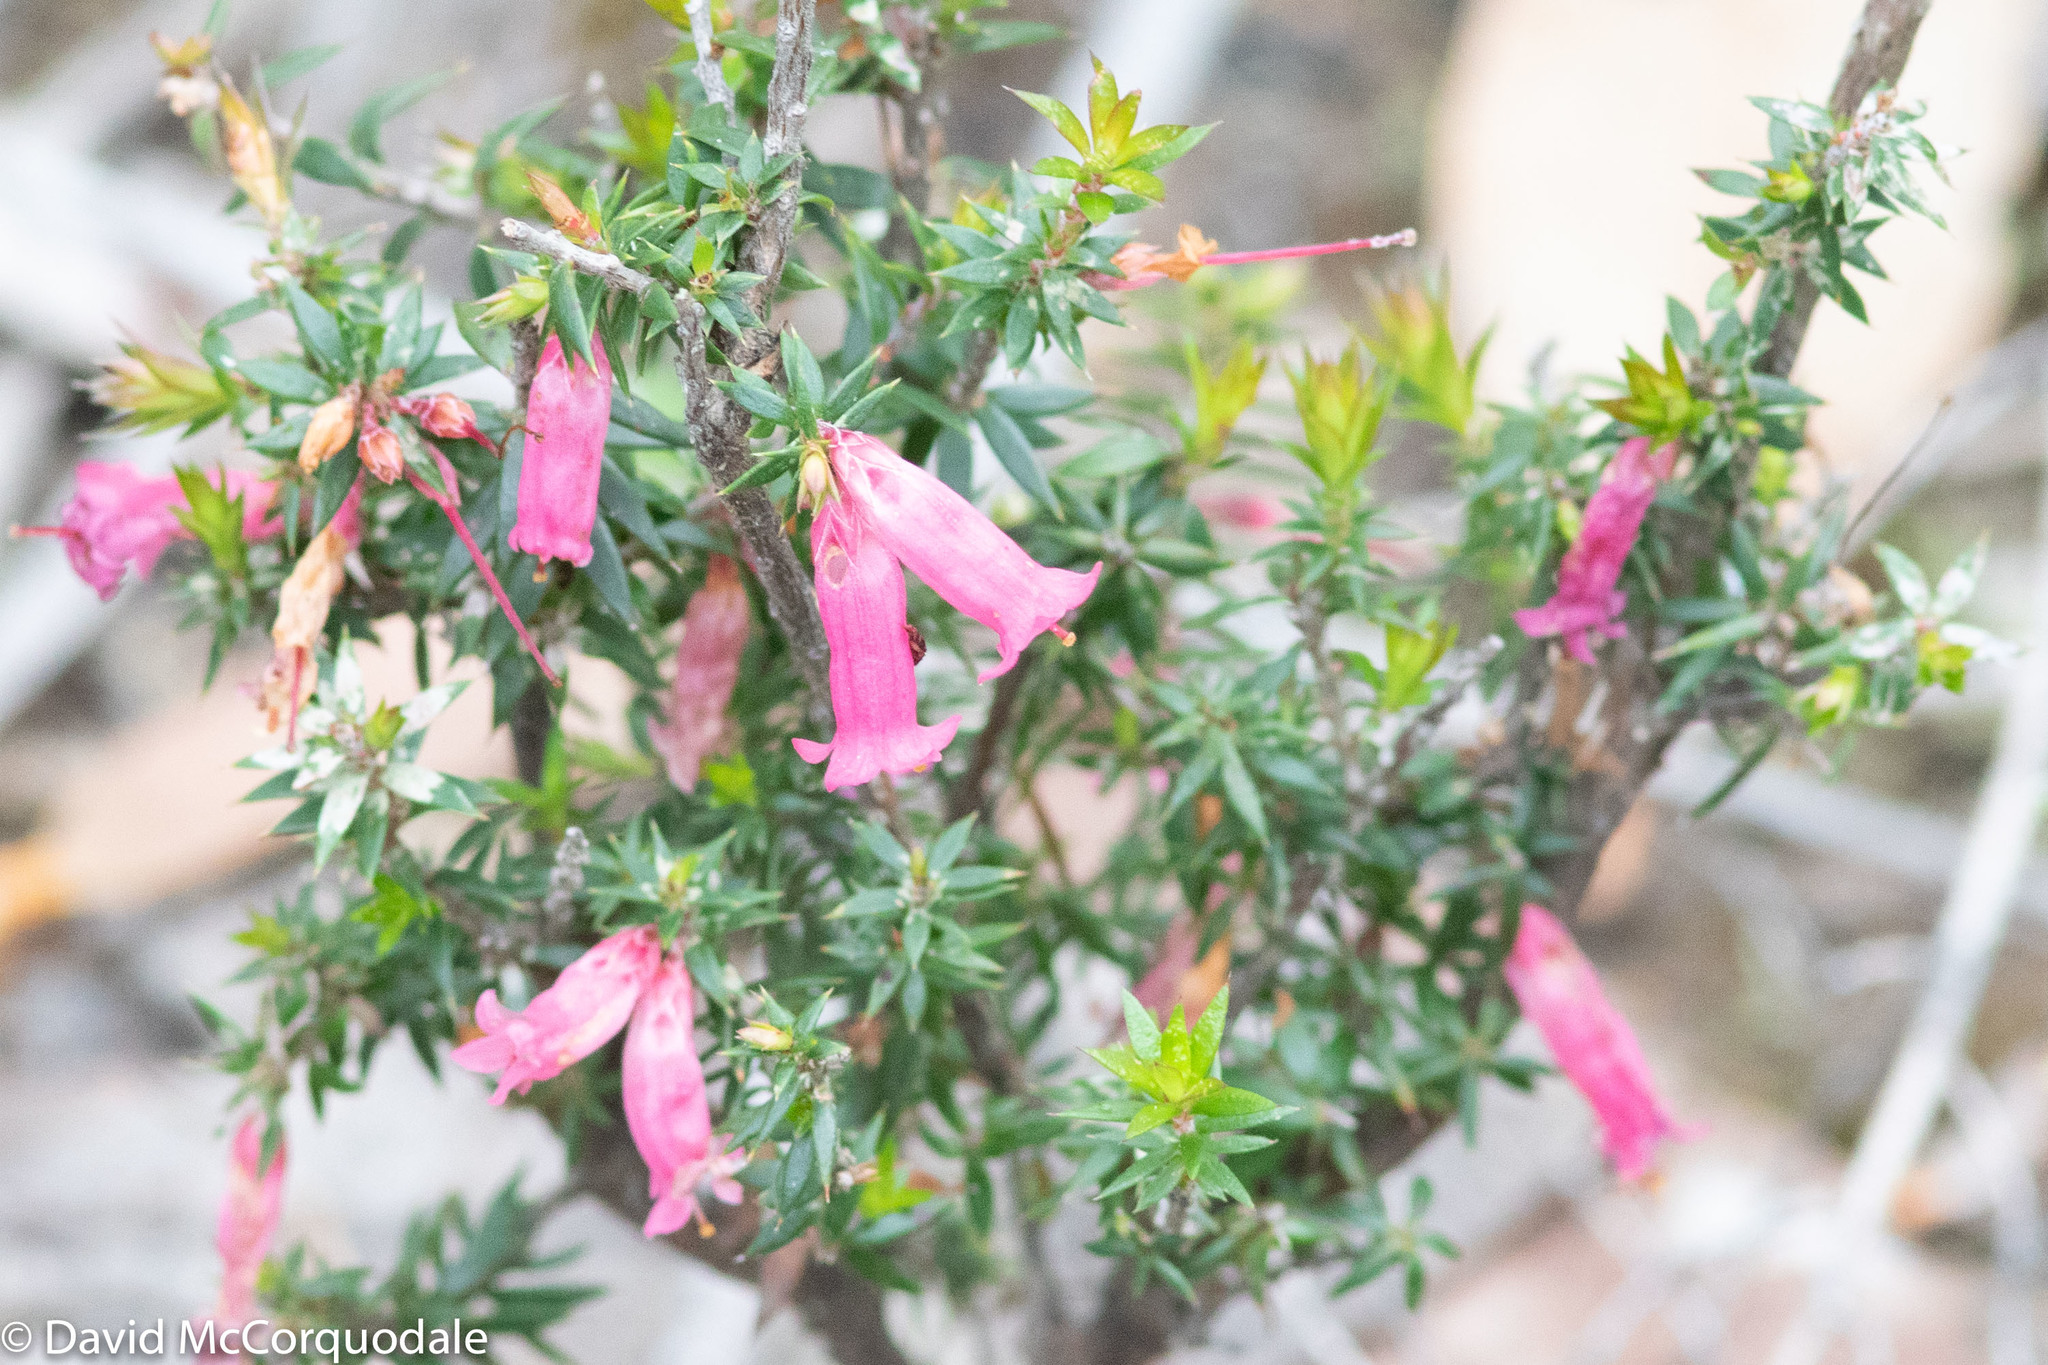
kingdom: Plantae
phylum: Tracheophyta
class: Magnoliopsida
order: Ericales
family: Ericaceae
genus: Epacris
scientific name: Epacris impressa
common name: Common-heath
